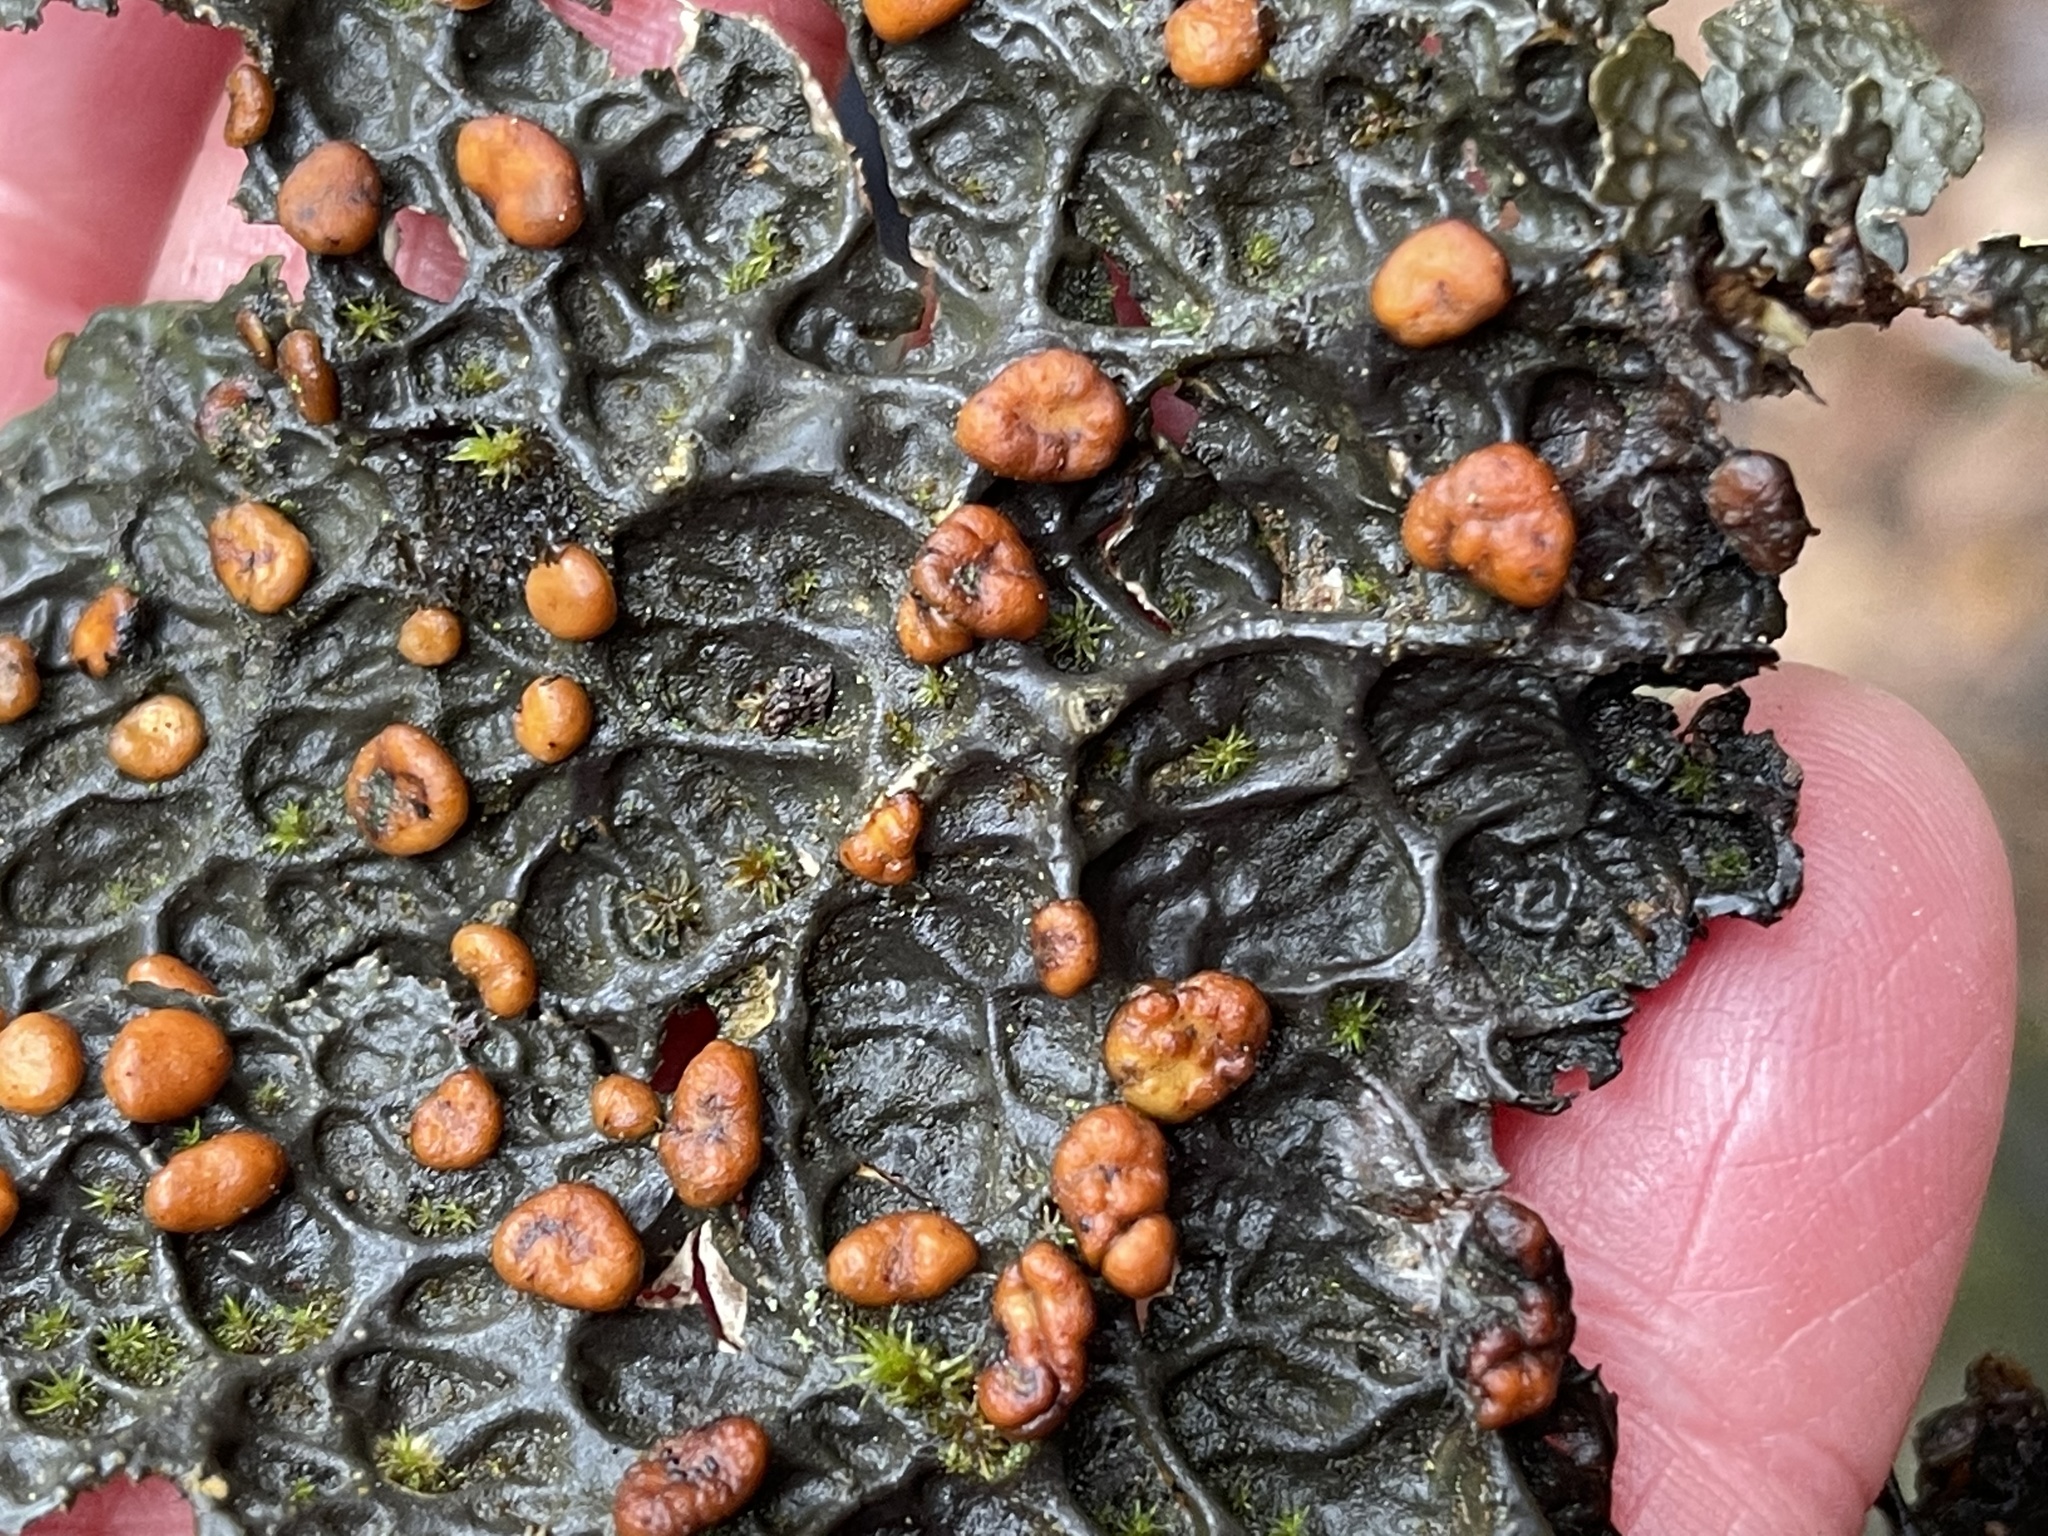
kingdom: Fungi
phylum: Ascomycota
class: Lecanoromycetes
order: Peltigerales
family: Lobariaceae
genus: Lobaria
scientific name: Lobaria anthraspis
